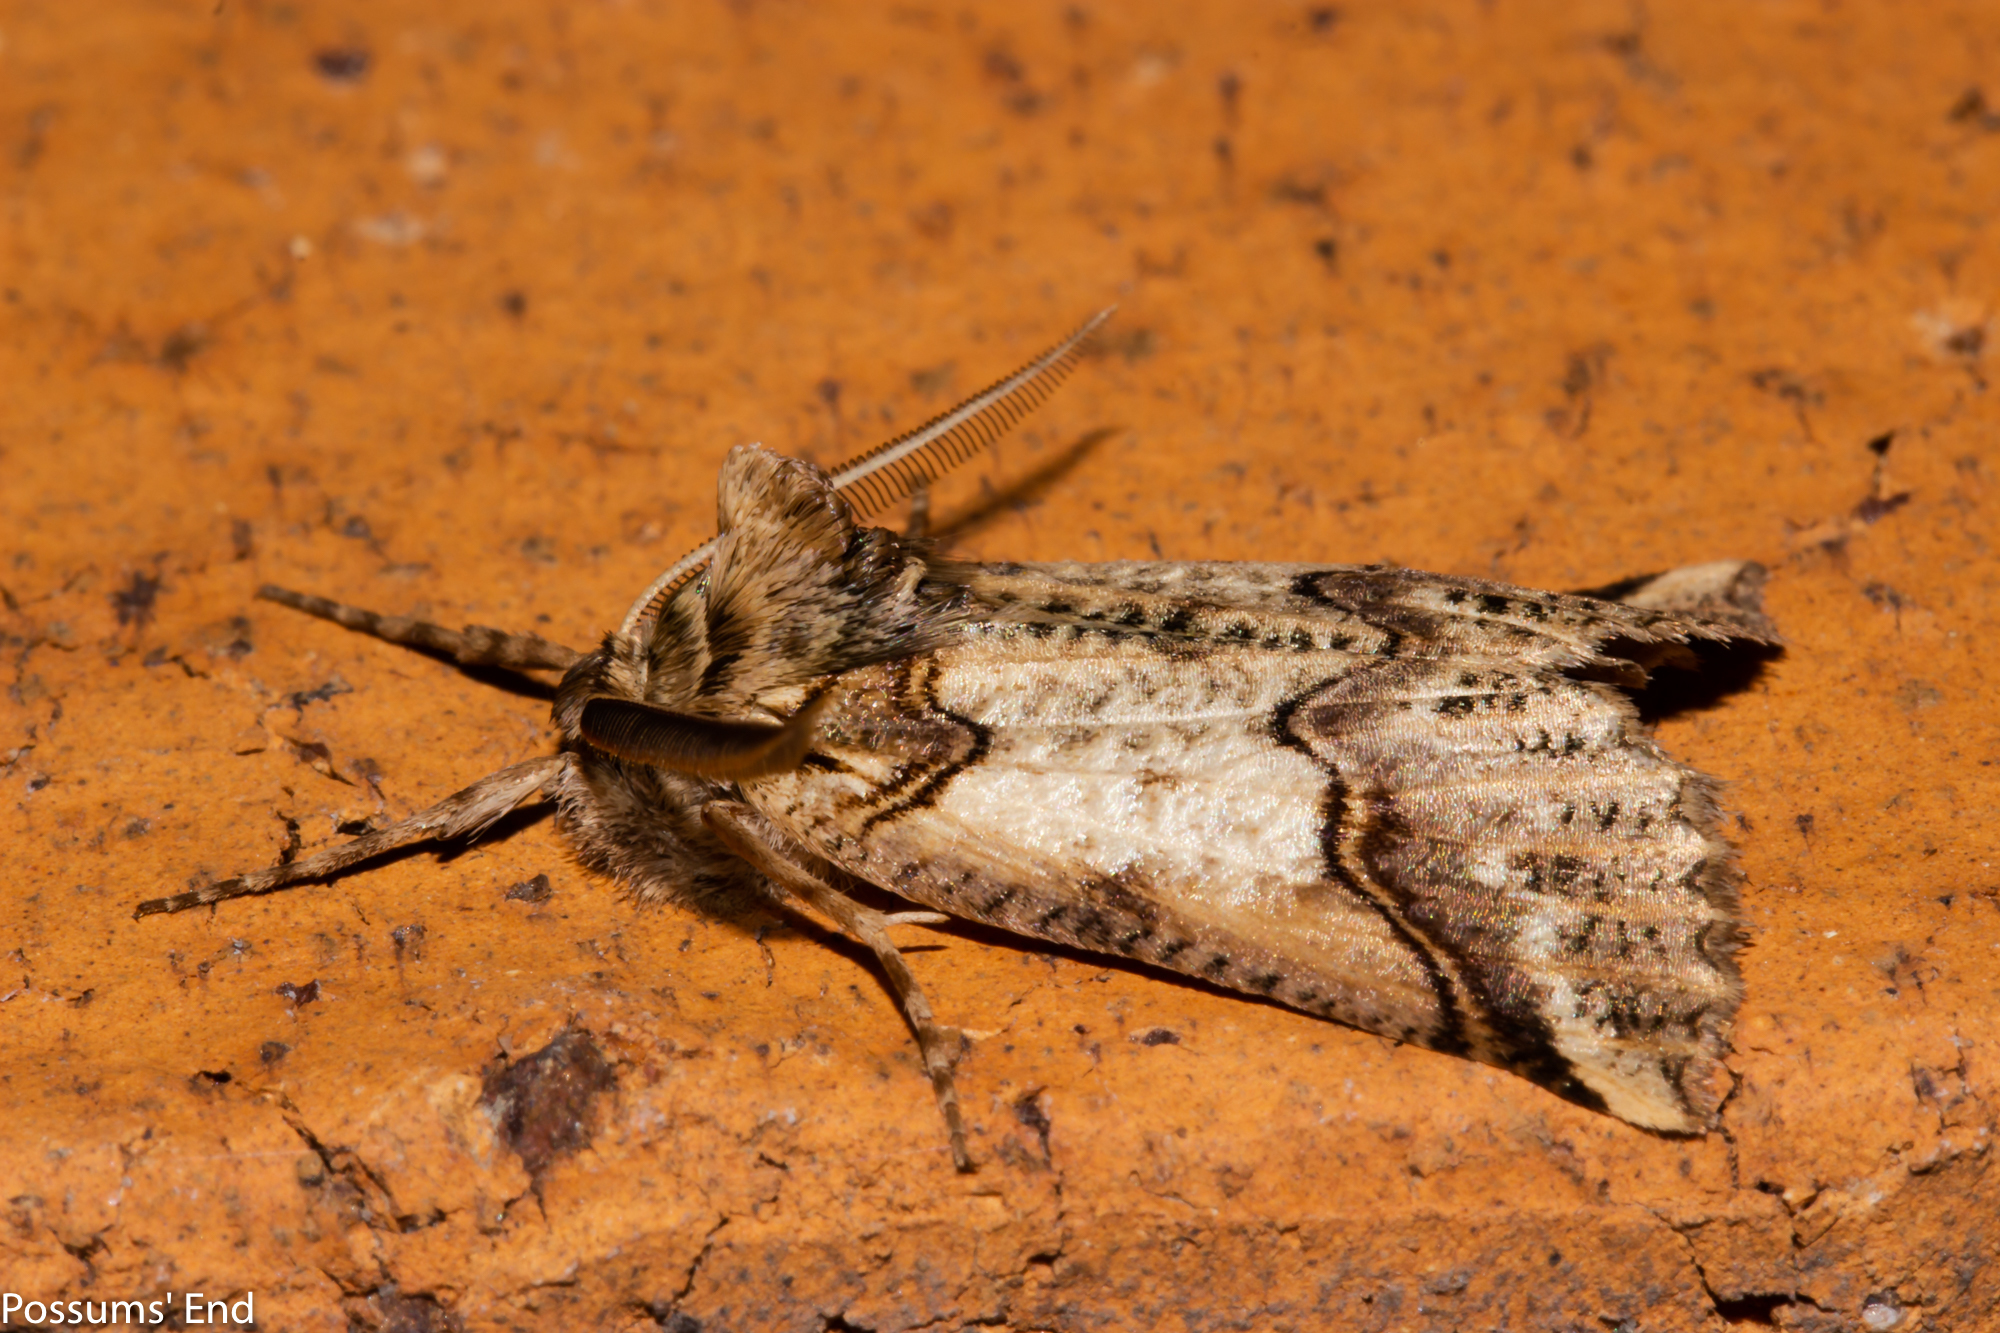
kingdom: Animalia
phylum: Arthropoda
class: Insecta
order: Lepidoptera
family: Geometridae
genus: Declana
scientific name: Declana
